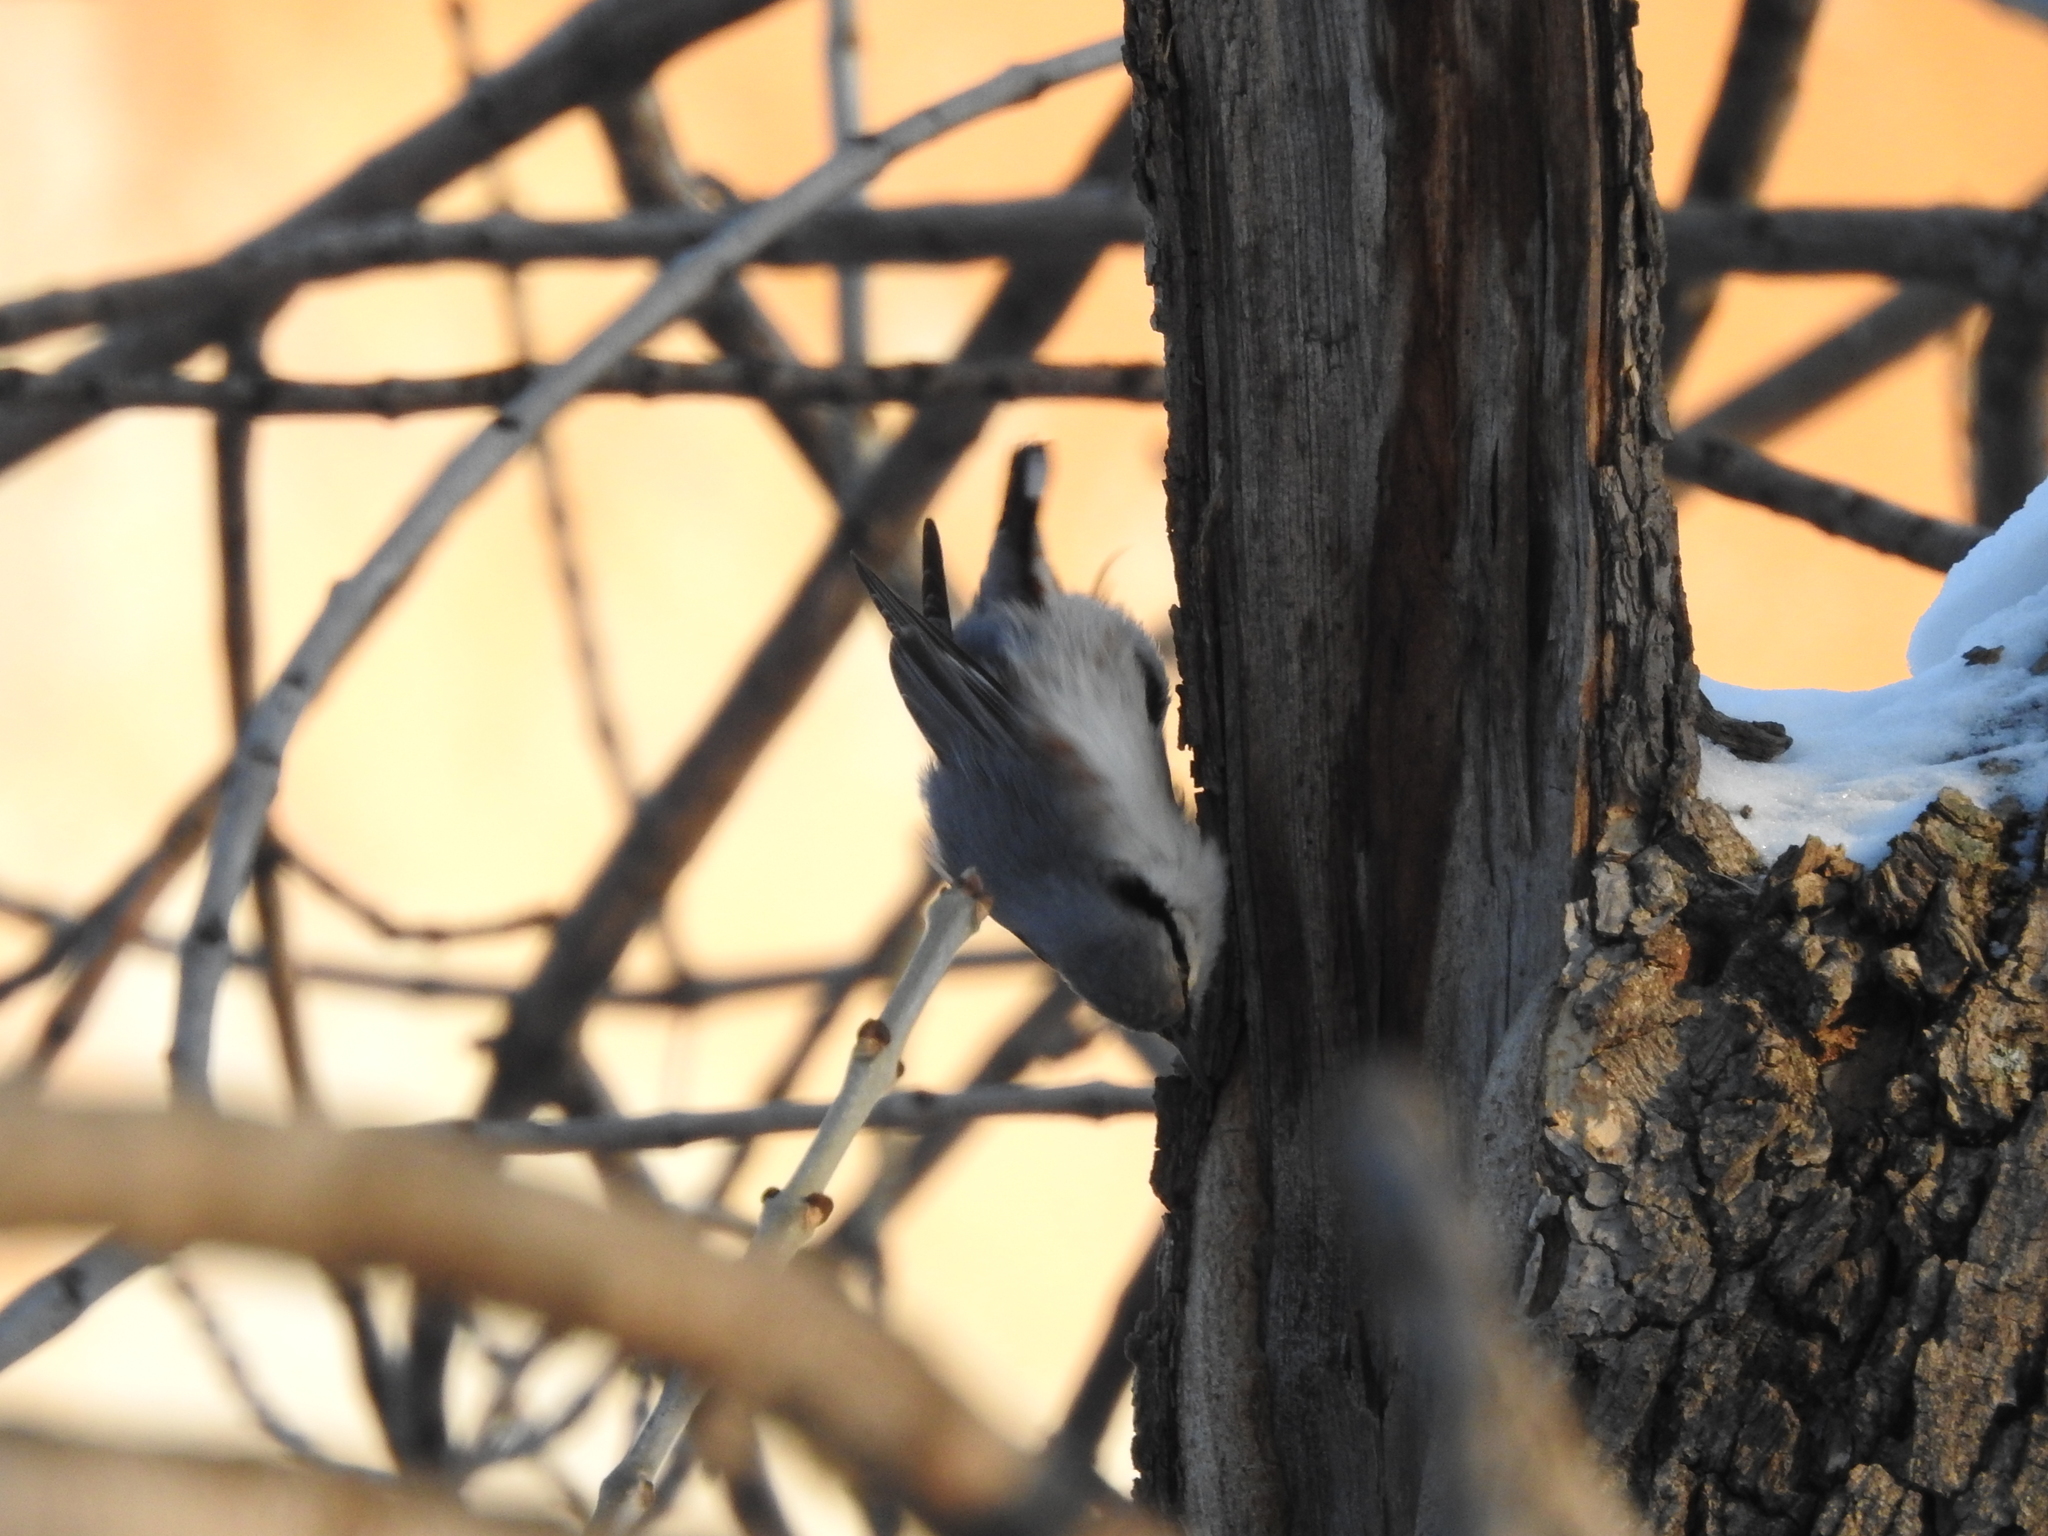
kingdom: Animalia
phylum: Chordata
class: Aves
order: Passeriformes
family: Sittidae
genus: Sitta
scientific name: Sitta europaea
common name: Eurasian nuthatch
